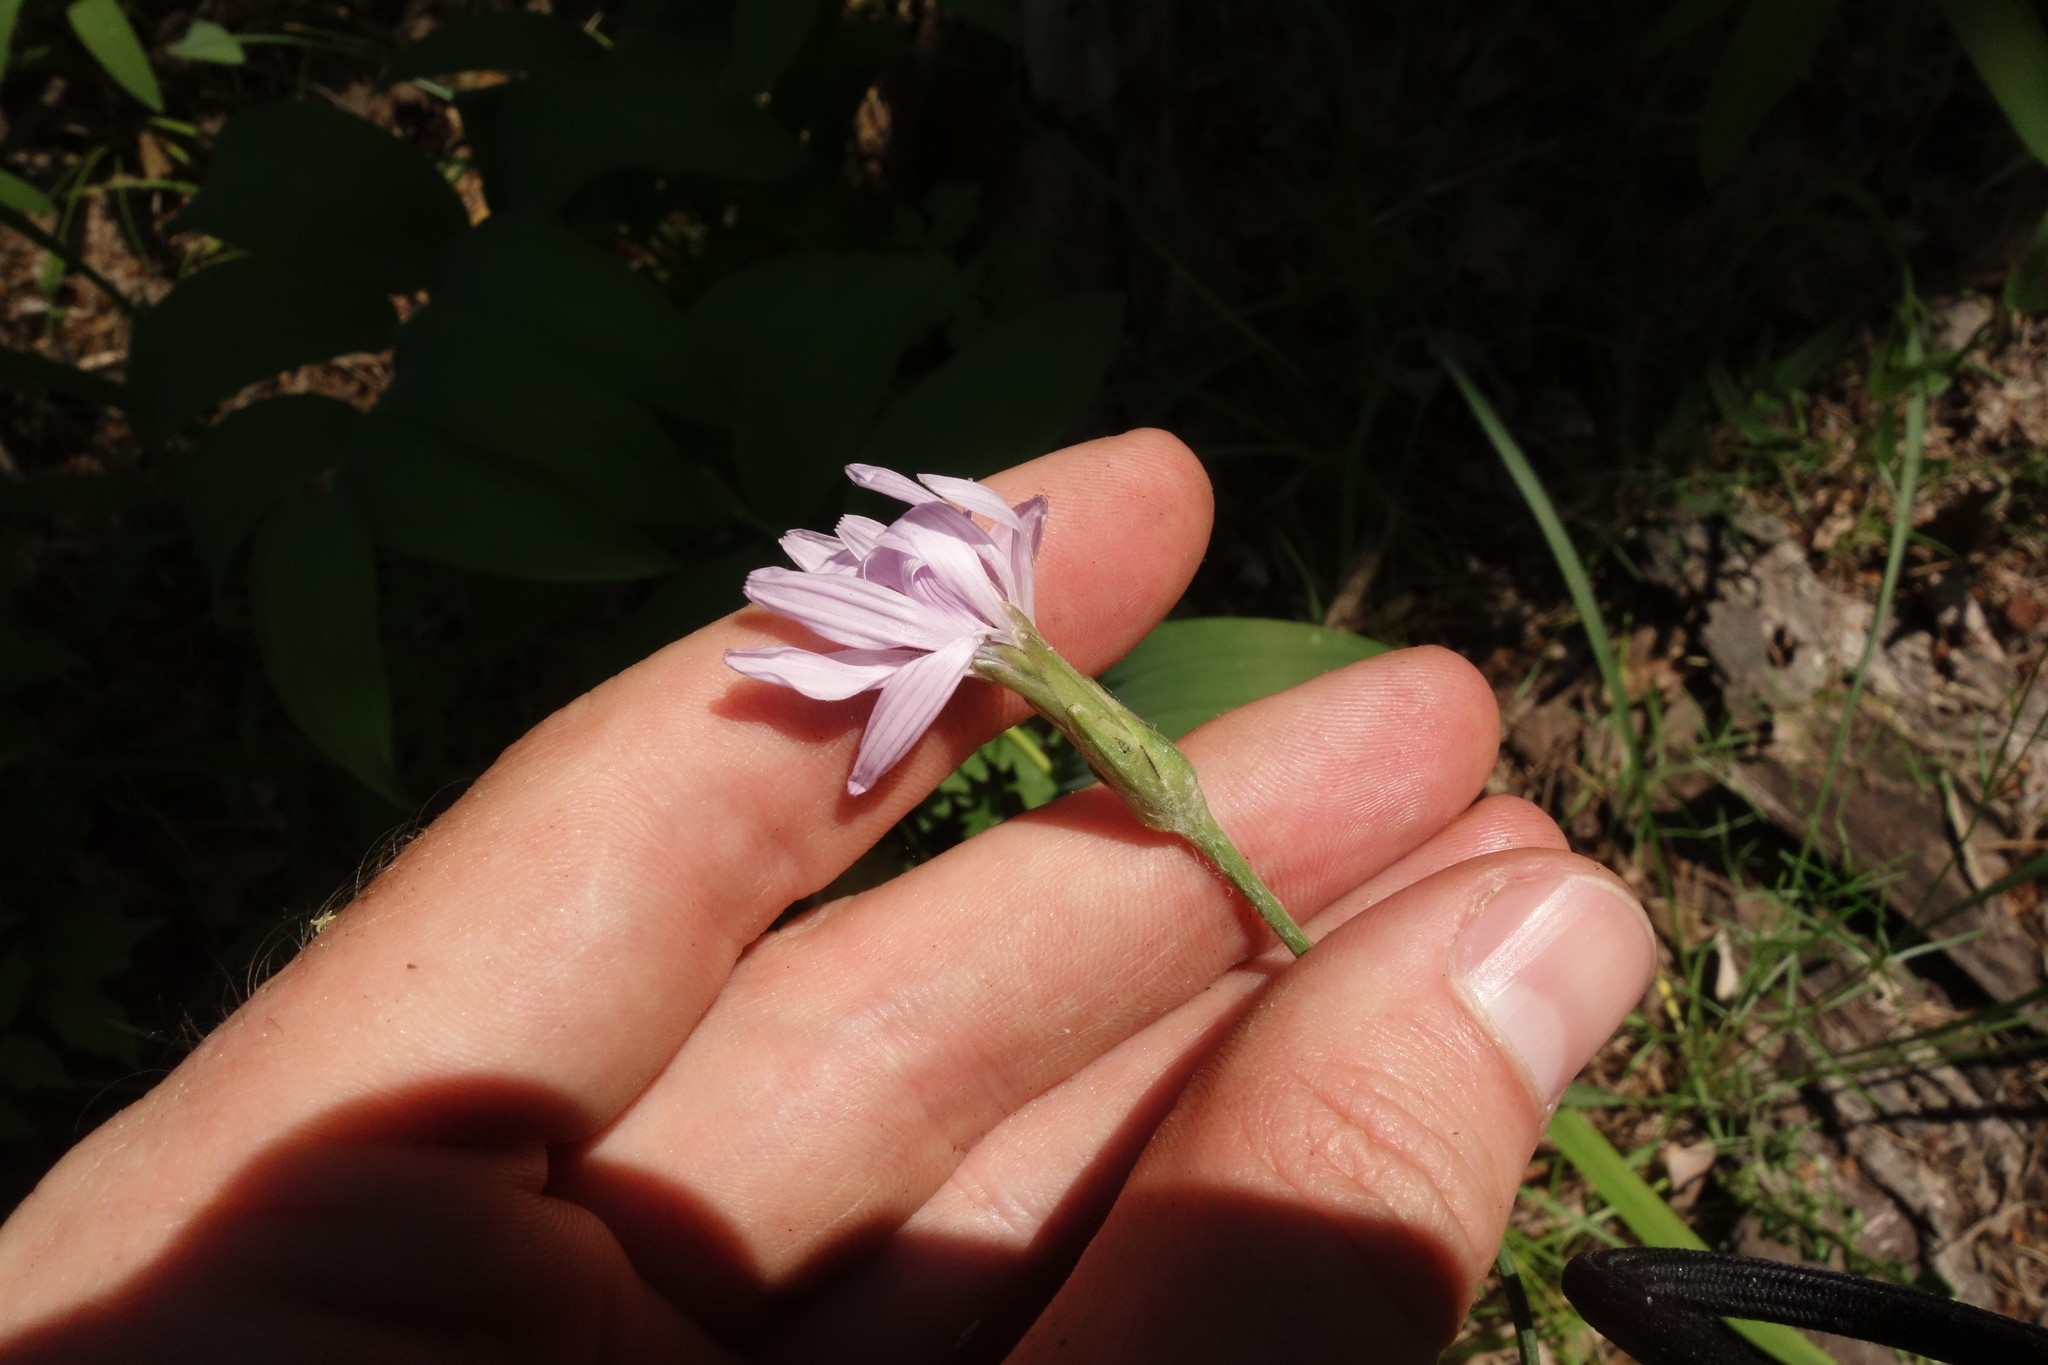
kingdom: Plantae
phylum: Tracheophyta
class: Magnoliopsida
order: Asterales
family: Asteraceae
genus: Scorzonera
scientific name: Scorzonera purpurea
